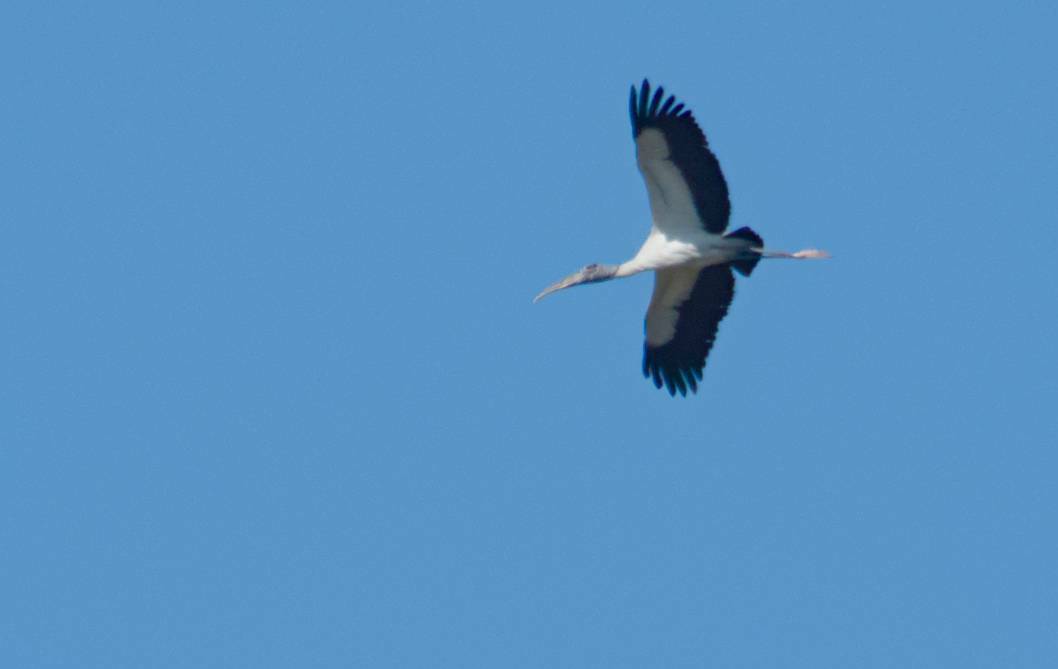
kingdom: Animalia
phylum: Chordata
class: Aves
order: Ciconiiformes
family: Ciconiidae
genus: Mycteria
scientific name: Mycteria americana
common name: Wood stork
